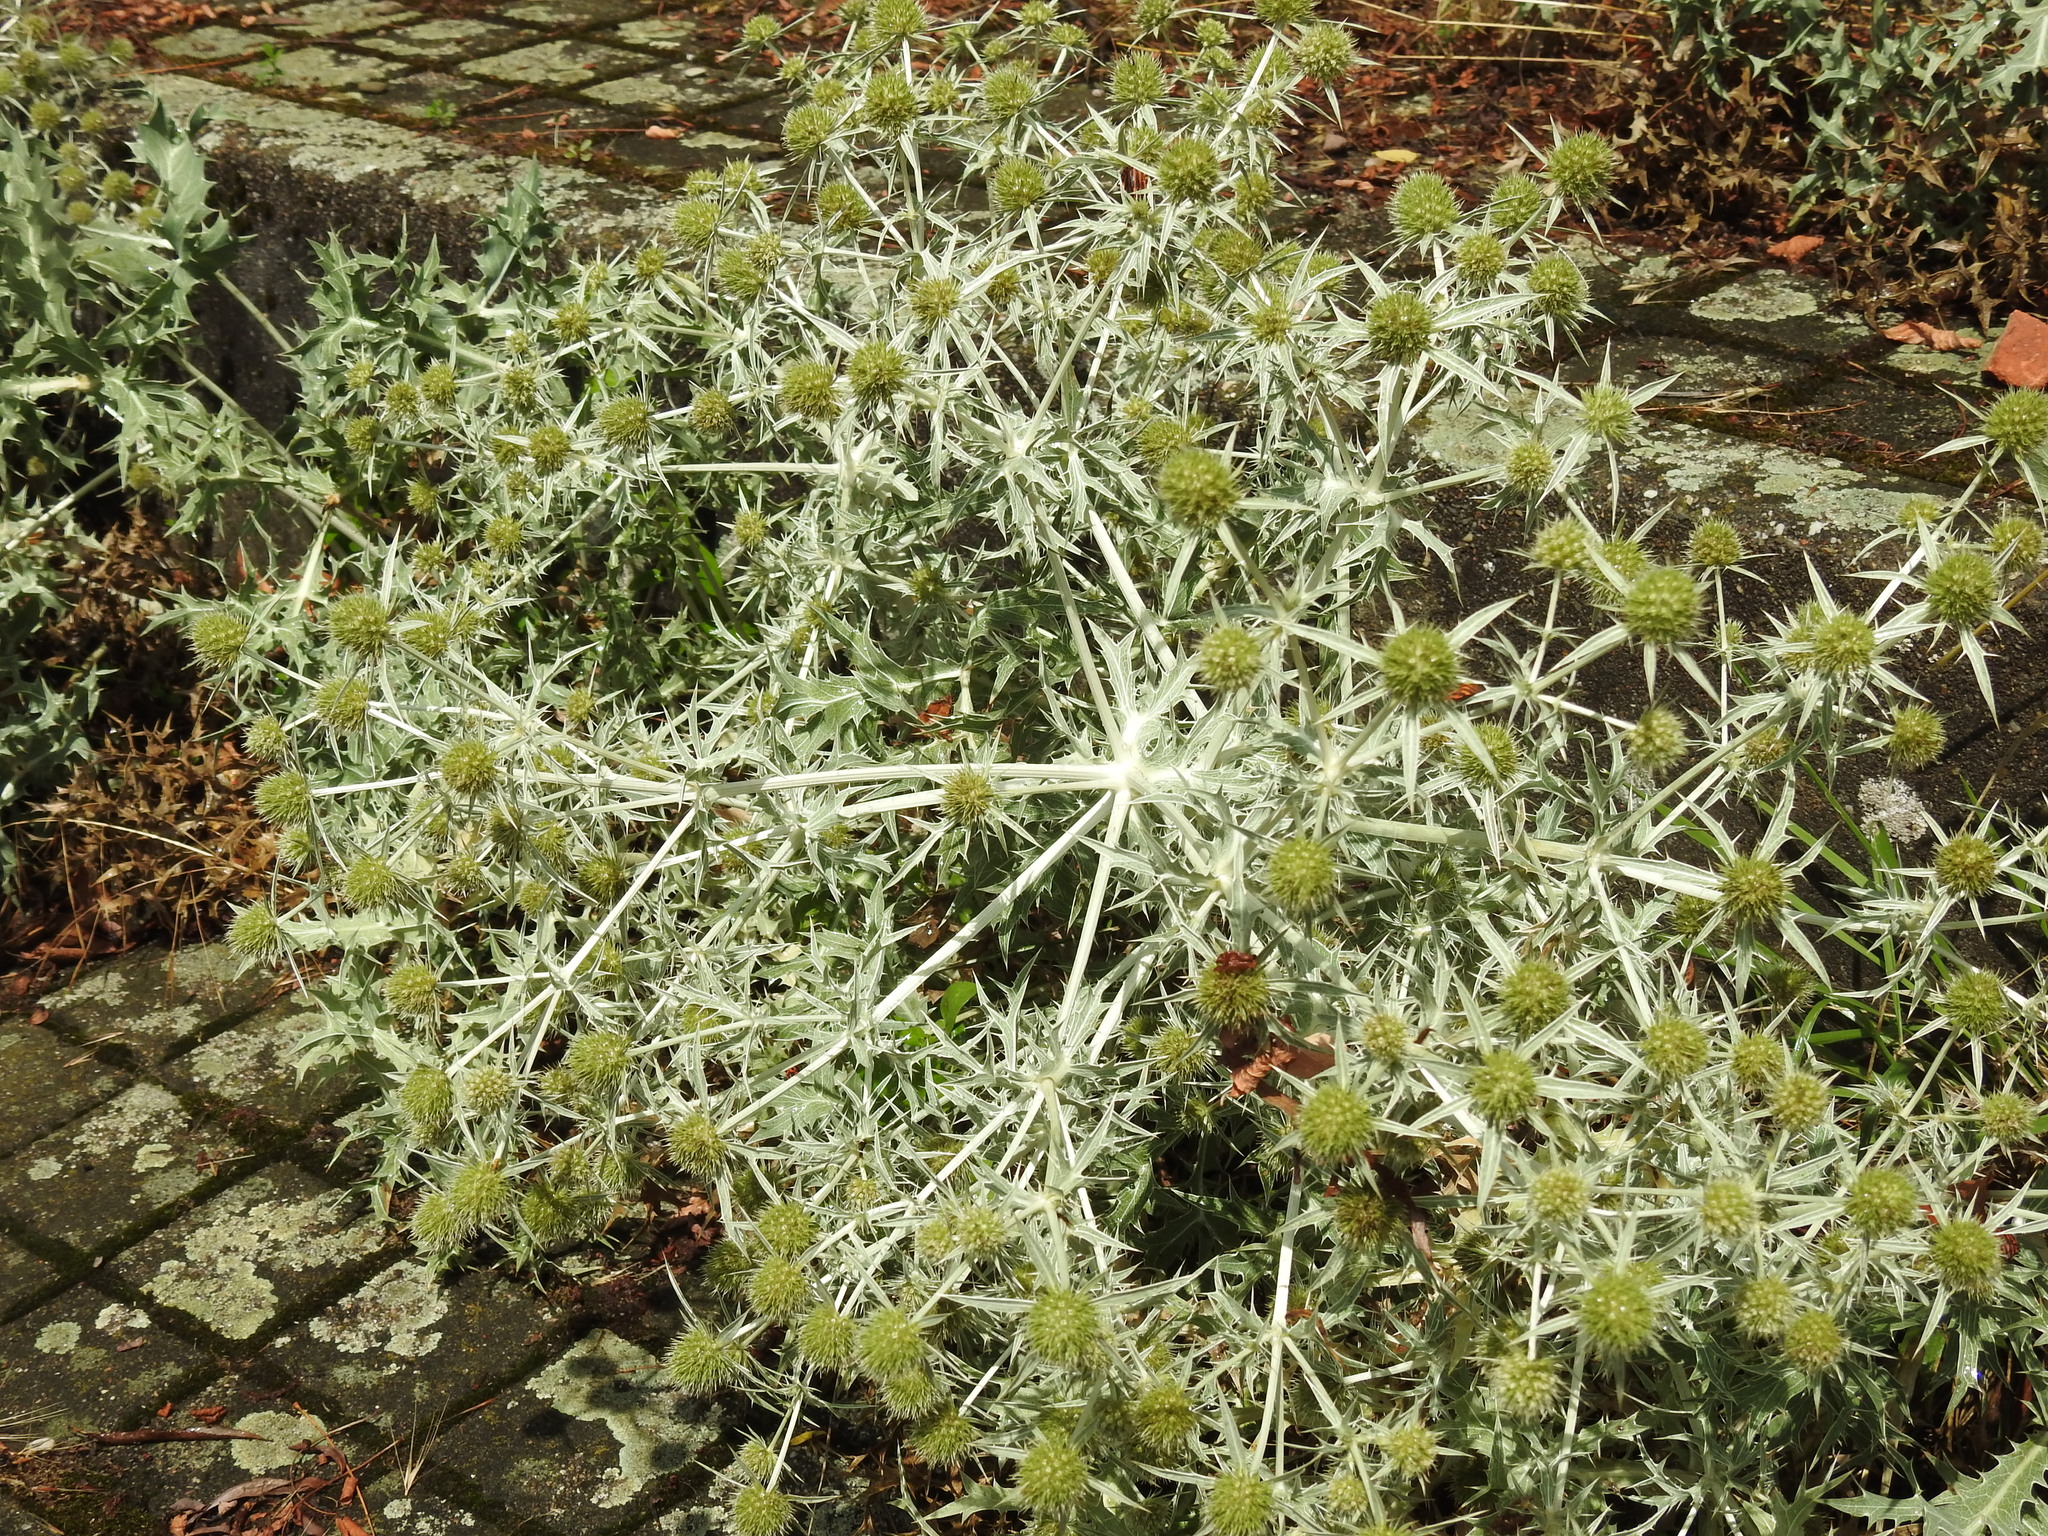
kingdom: Plantae
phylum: Tracheophyta
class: Magnoliopsida
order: Apiales
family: Apiaceae
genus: Eryngium
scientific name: Eryngium campestre
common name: Field eryngo
